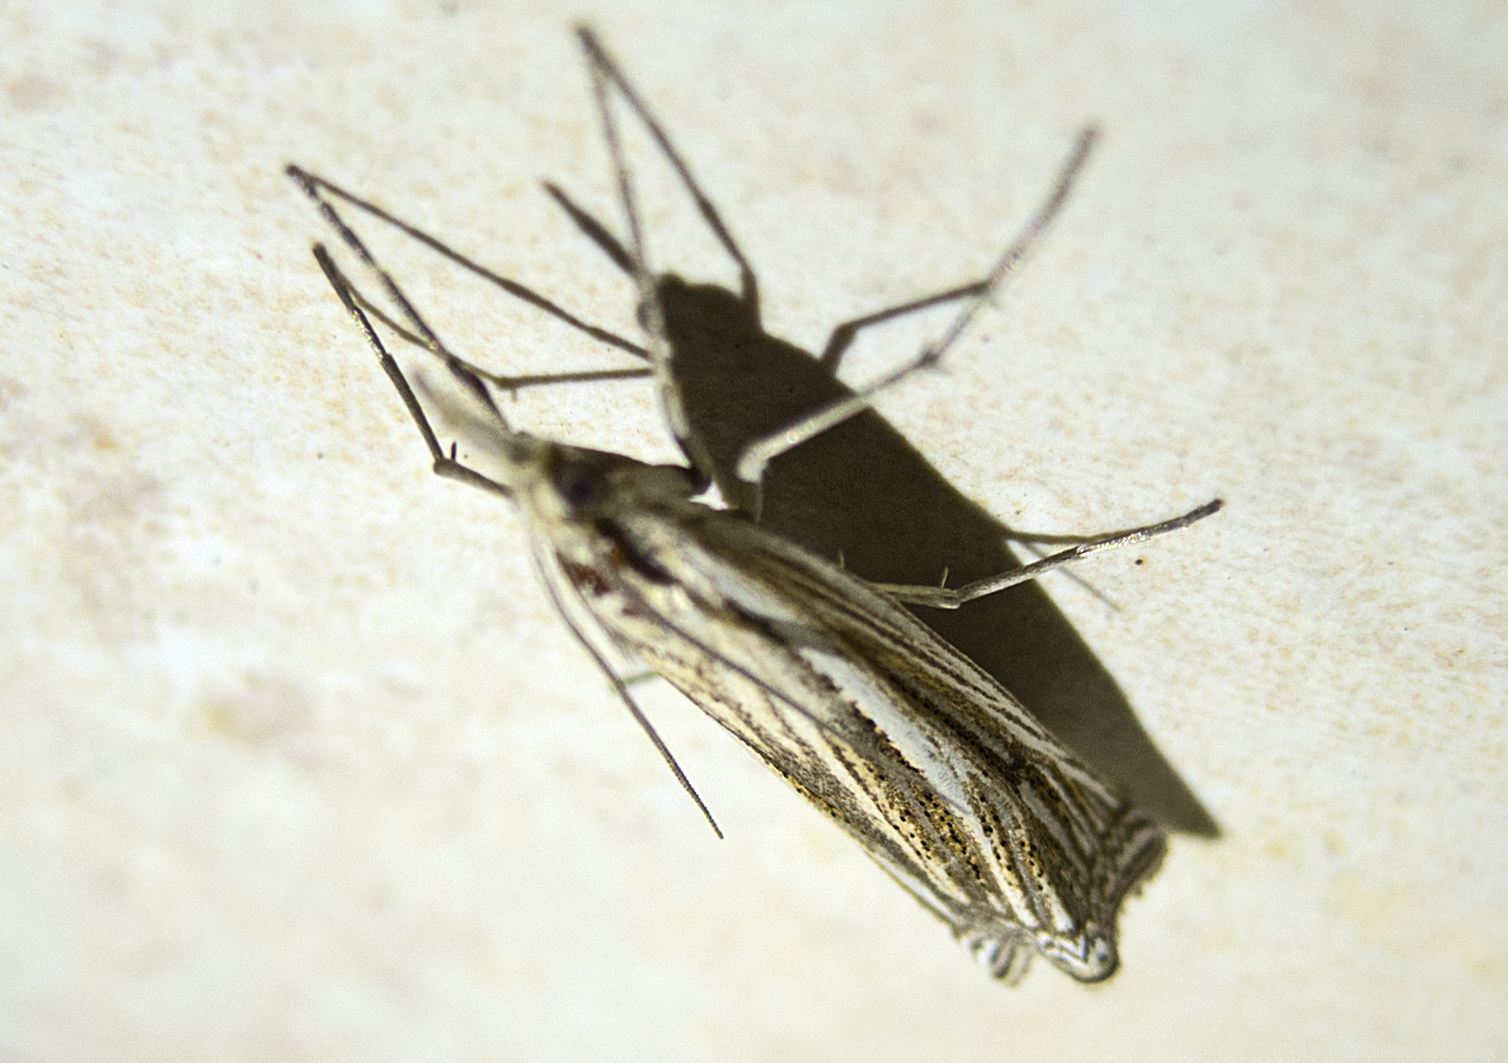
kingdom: Animalia
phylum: Arthropoda
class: Insecta
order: Lepidoptera
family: Crambidae
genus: Ancylolomia
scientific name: Ancylolomia
